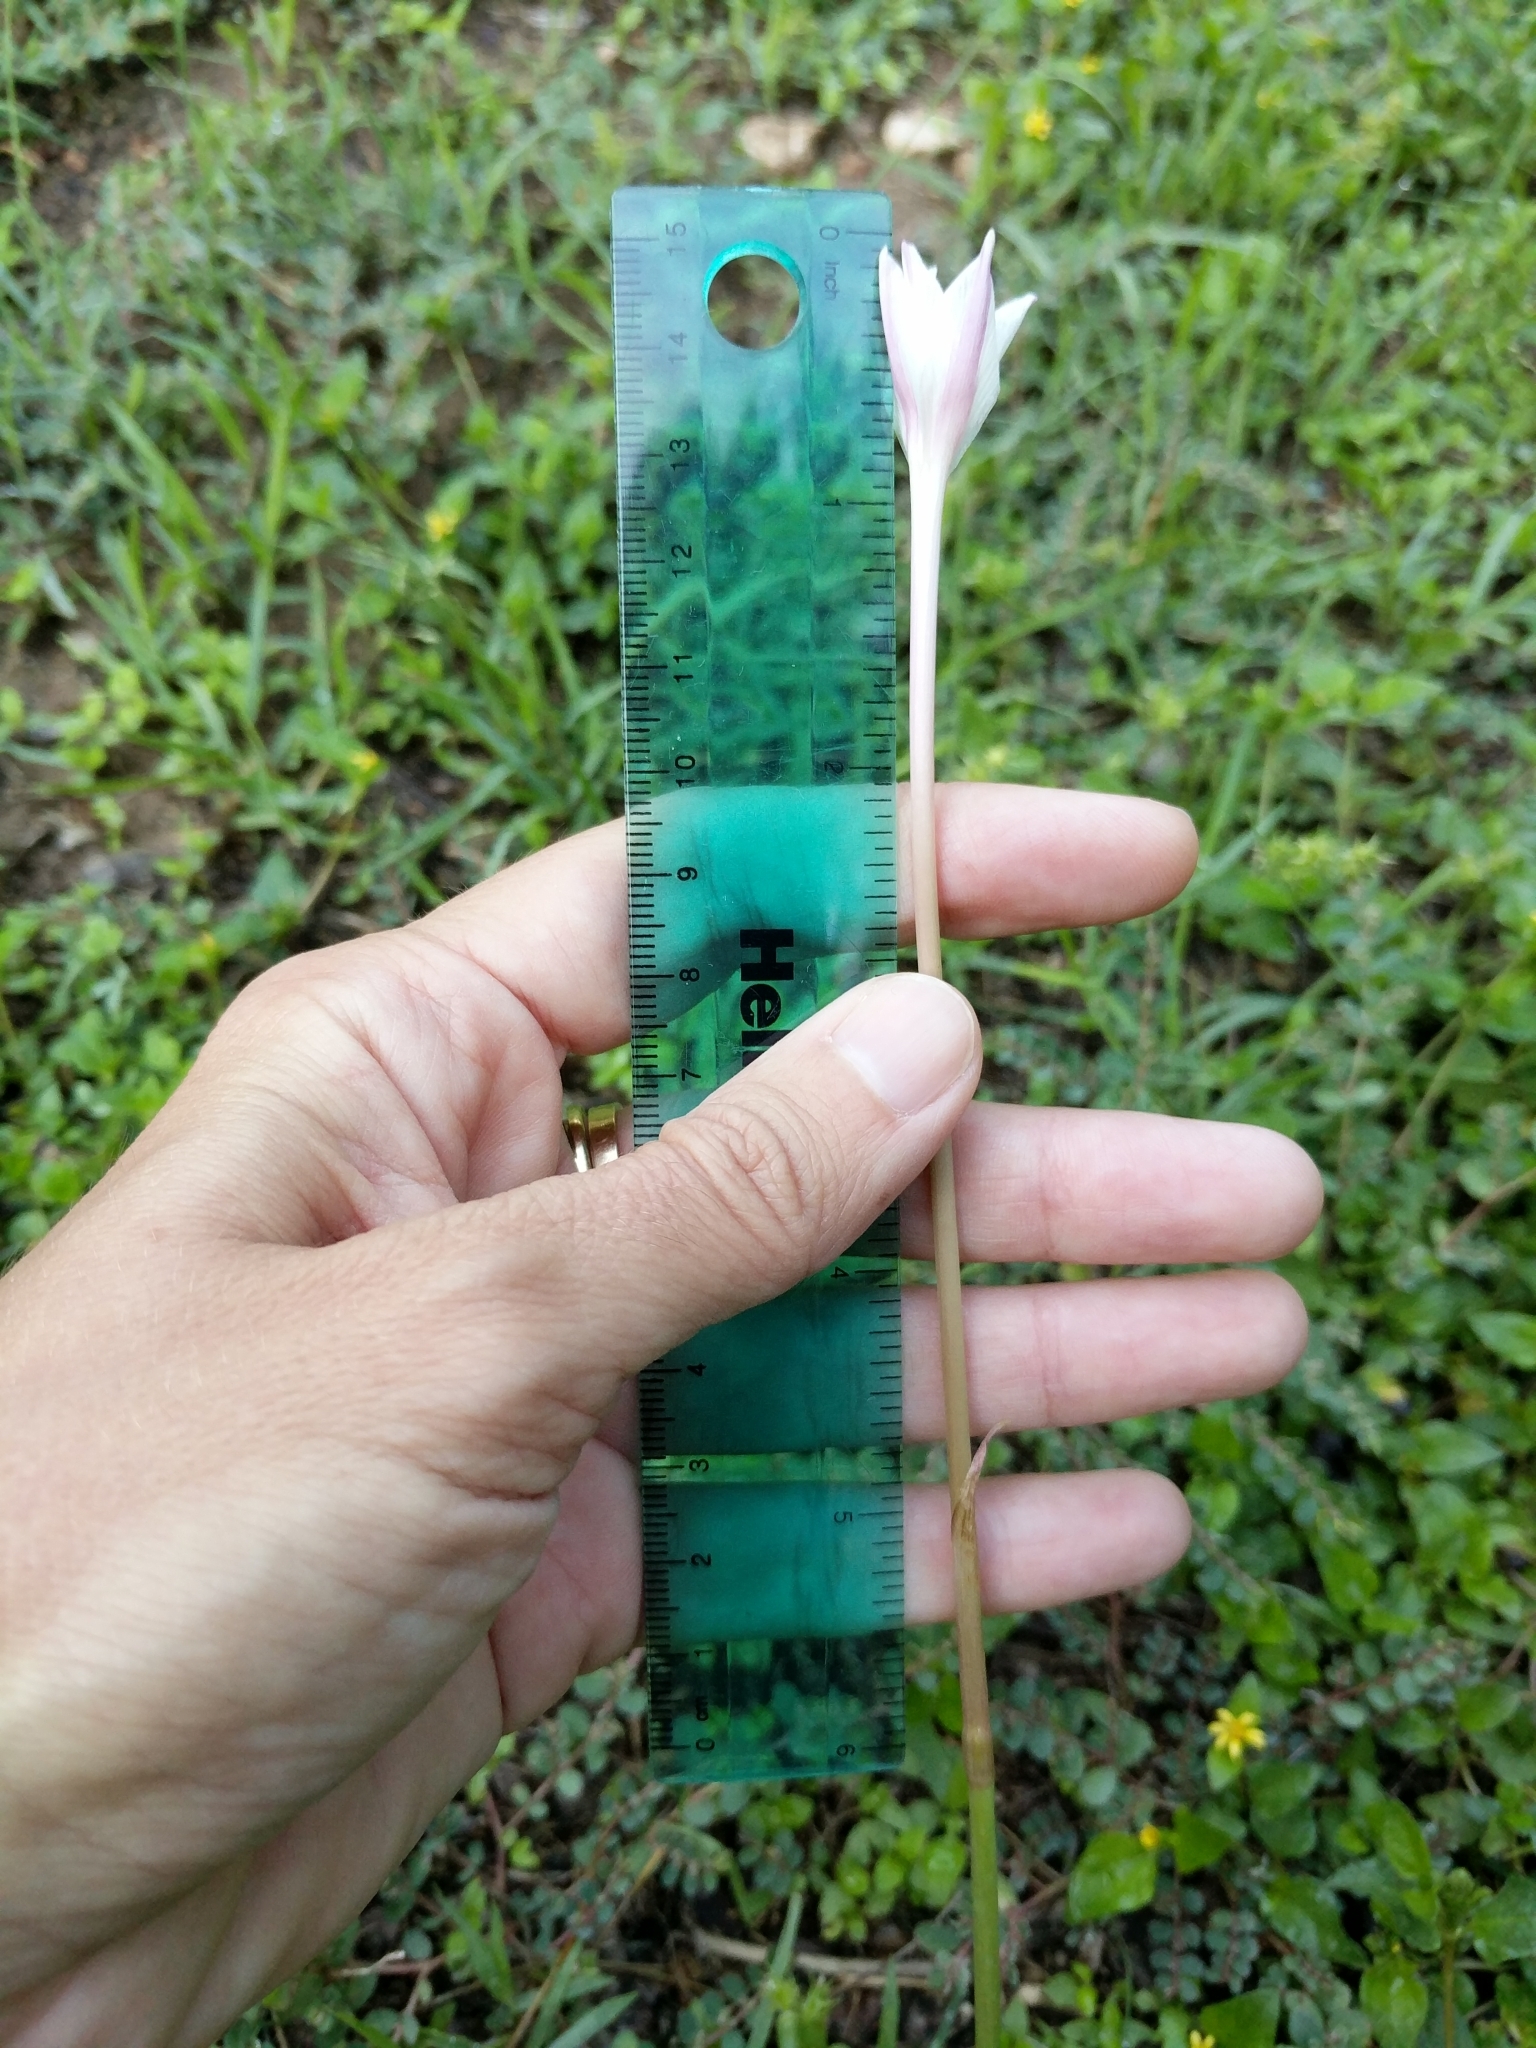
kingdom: Plantae
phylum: Tracheophyta
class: Liliopsida
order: Asparagales
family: Amaryllidaceae
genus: Zephyranthes
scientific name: Zephyranthes chlorosolen
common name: Evening rain-lily
